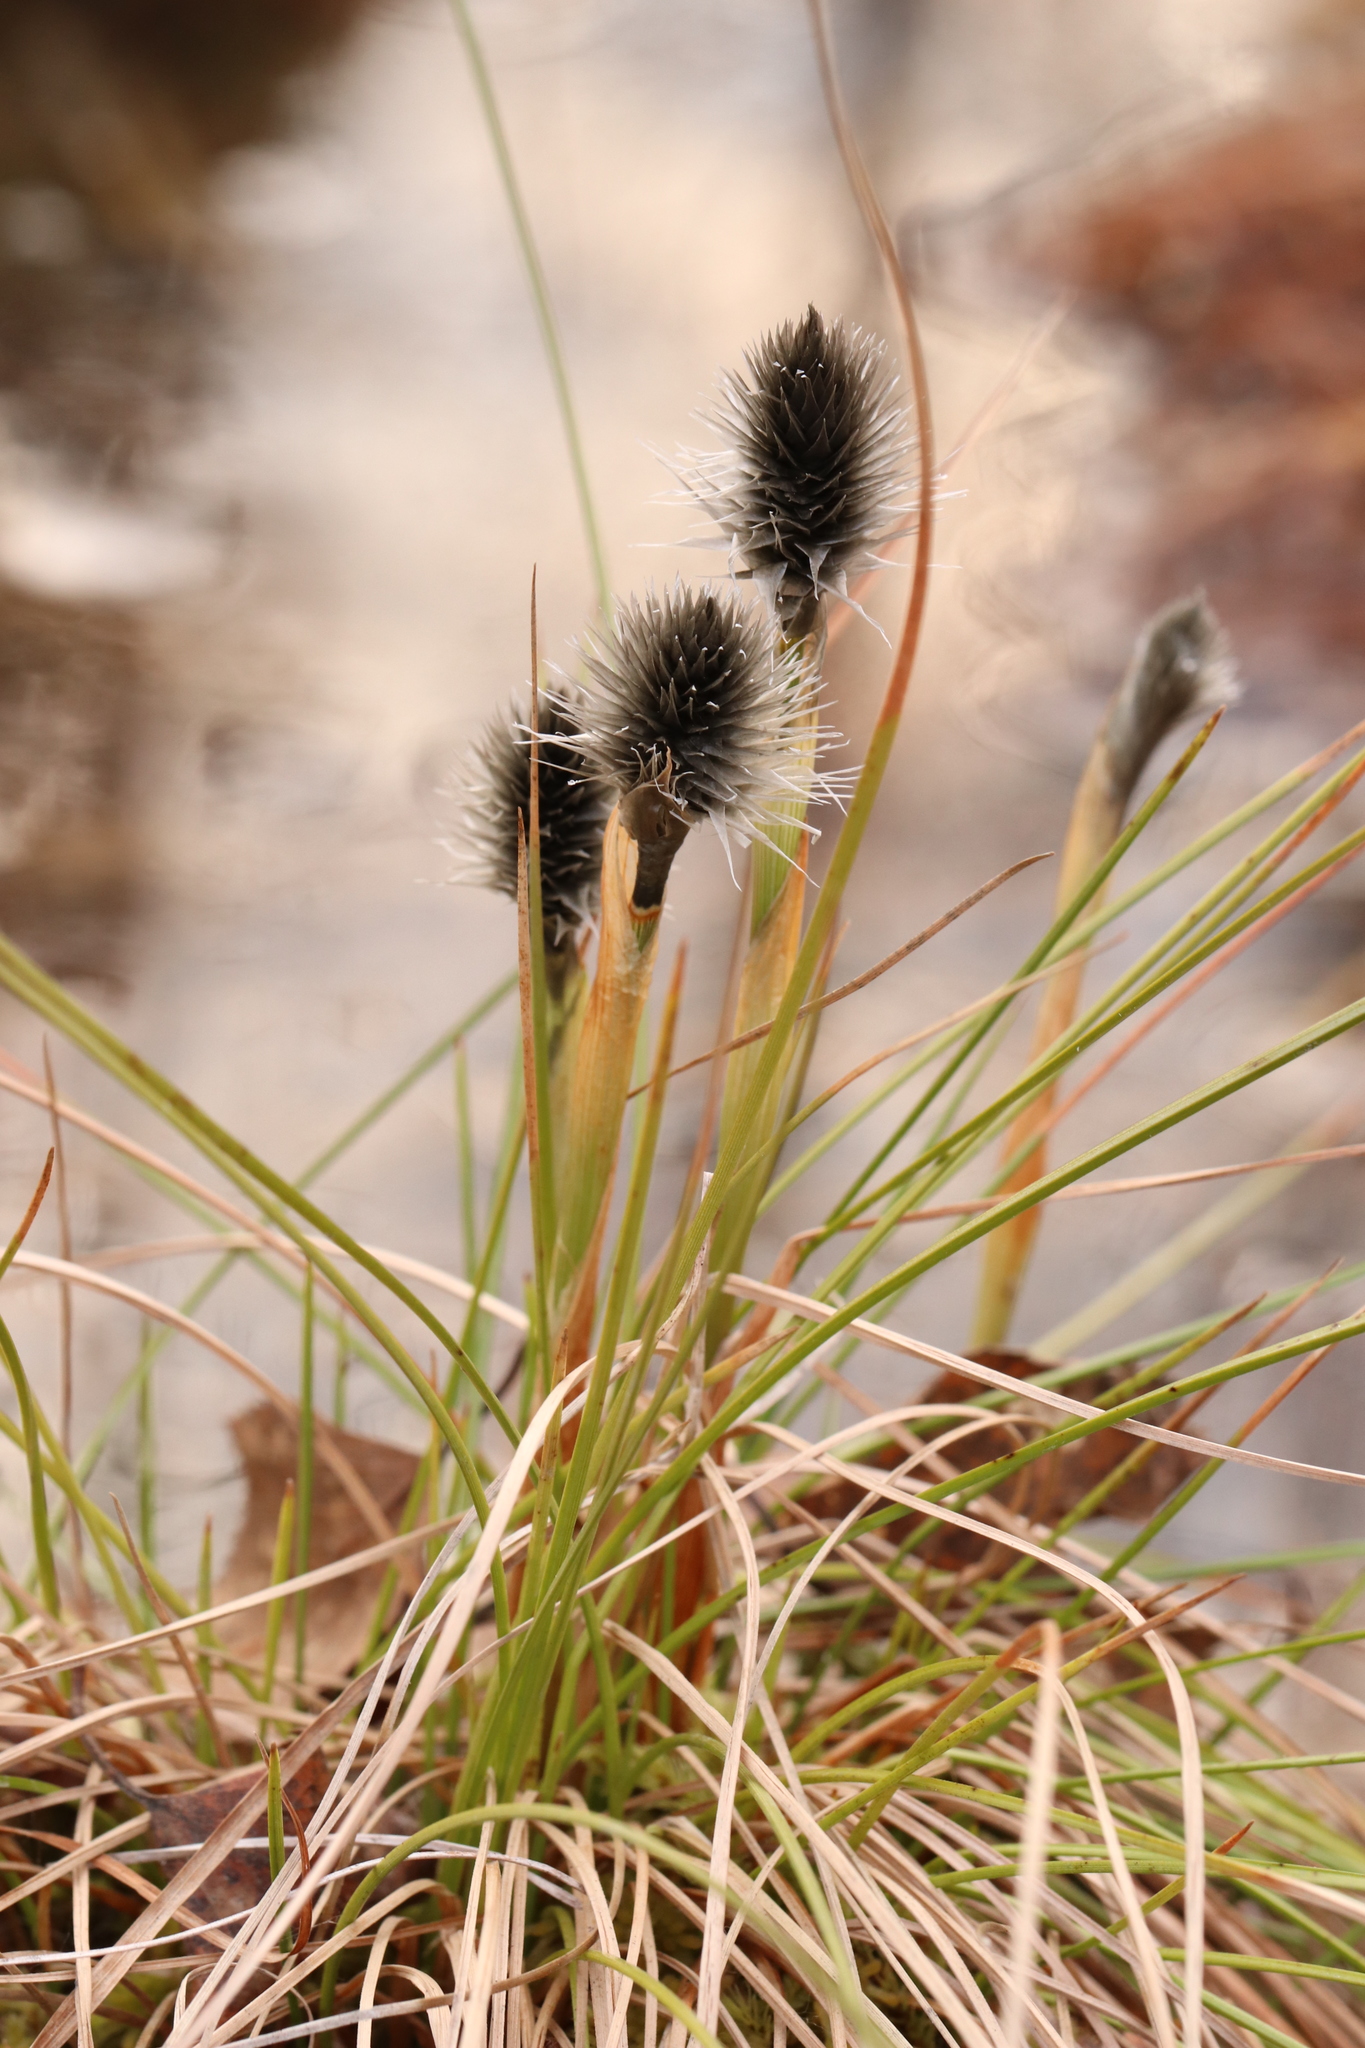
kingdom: Plantae
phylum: Tracheophyta
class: Liliopsida
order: Poales
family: Cyperaceae
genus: Eriophorum
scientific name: Eriophorum vaginatum
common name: Hare's-tail cottongrass
